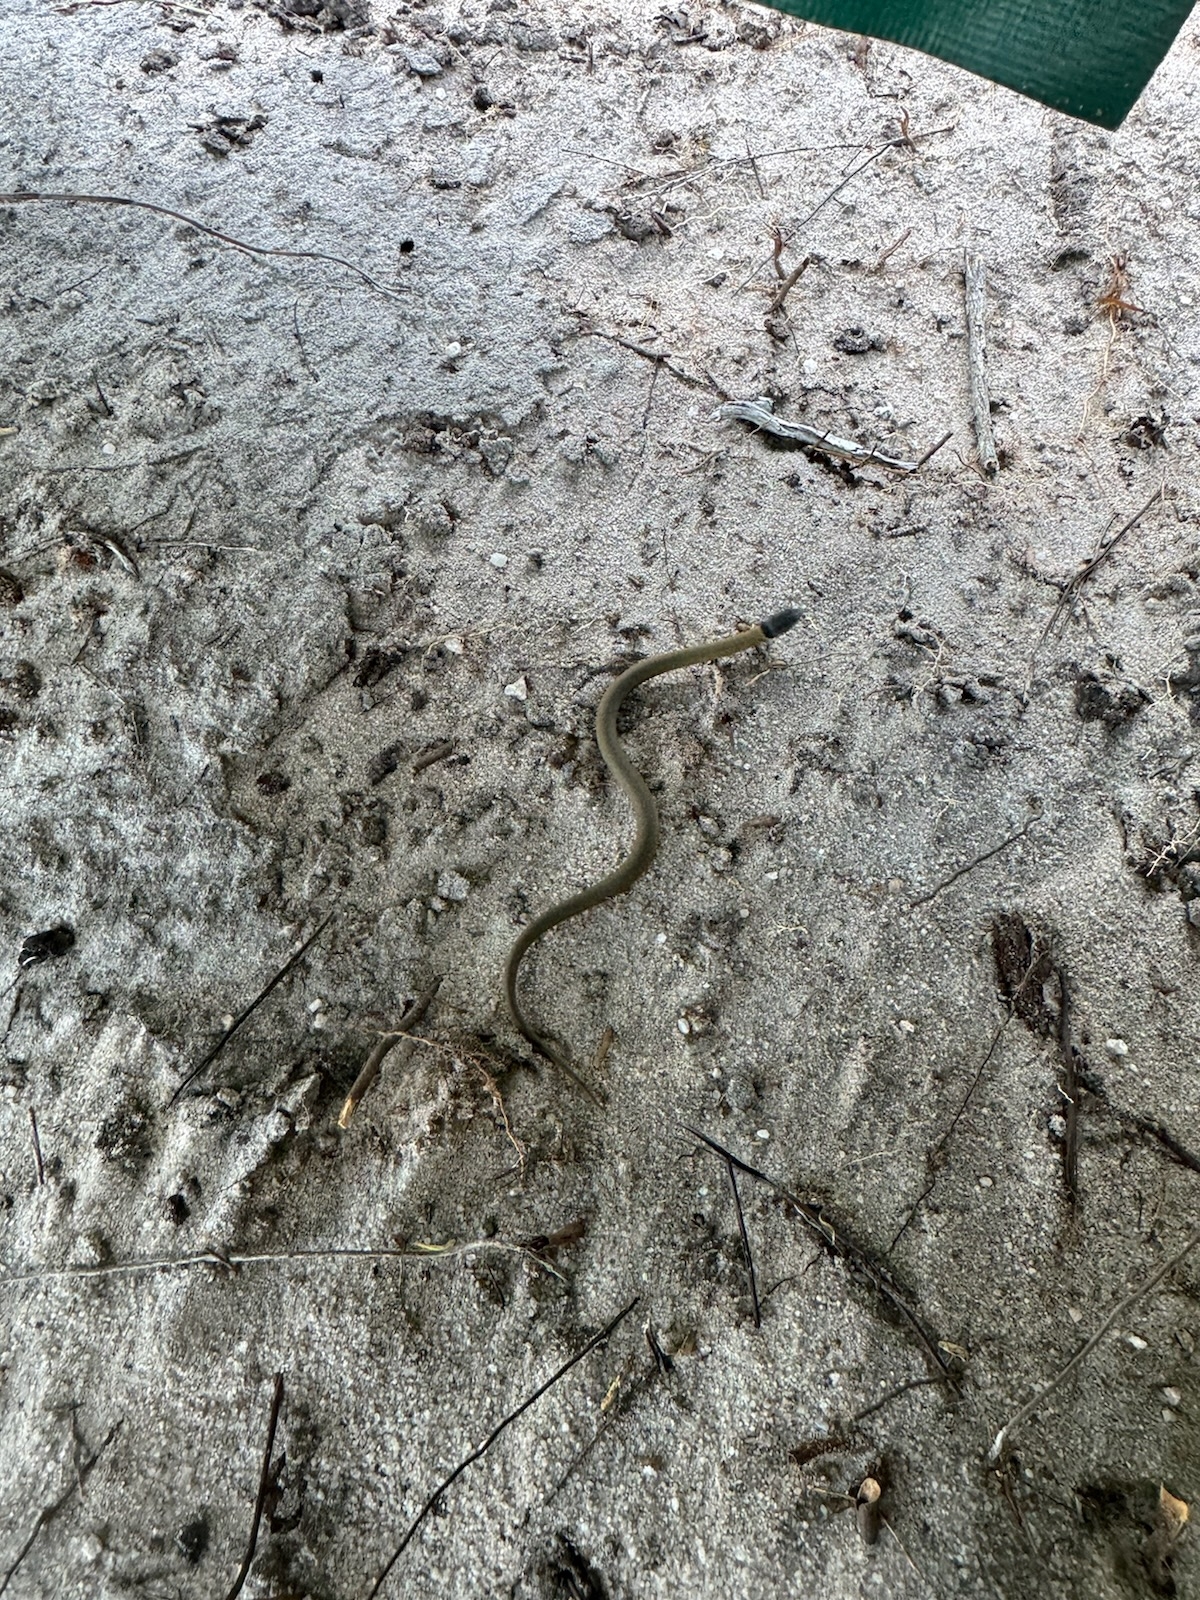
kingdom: Animalia
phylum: Chordata
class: Squamata
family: Elapidae
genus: Elapognathus
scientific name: Elapognathus coronatus
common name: Crowned snake
